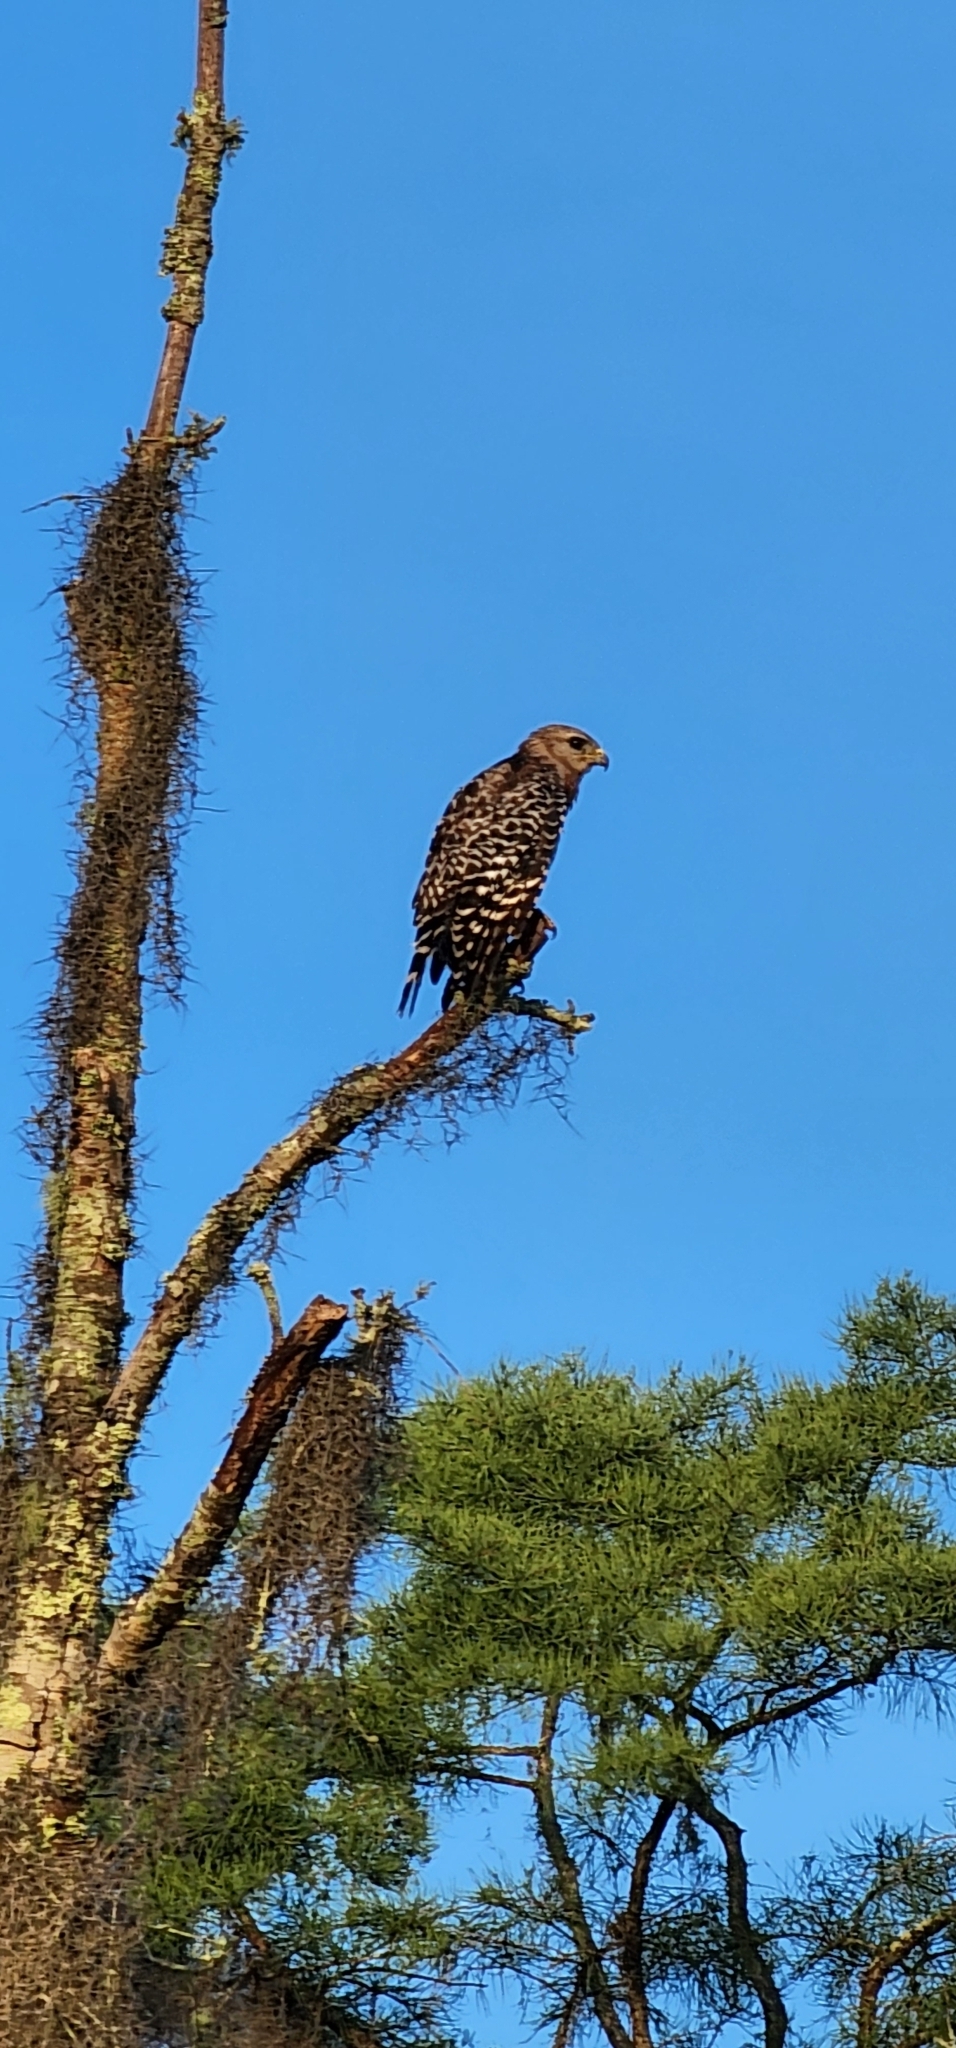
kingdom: Animalia
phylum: Chordata
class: Aves
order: Accipitriformes
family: Accipitridae
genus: Buteo
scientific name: Buteo lineatus
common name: Red-shouldered hawk
